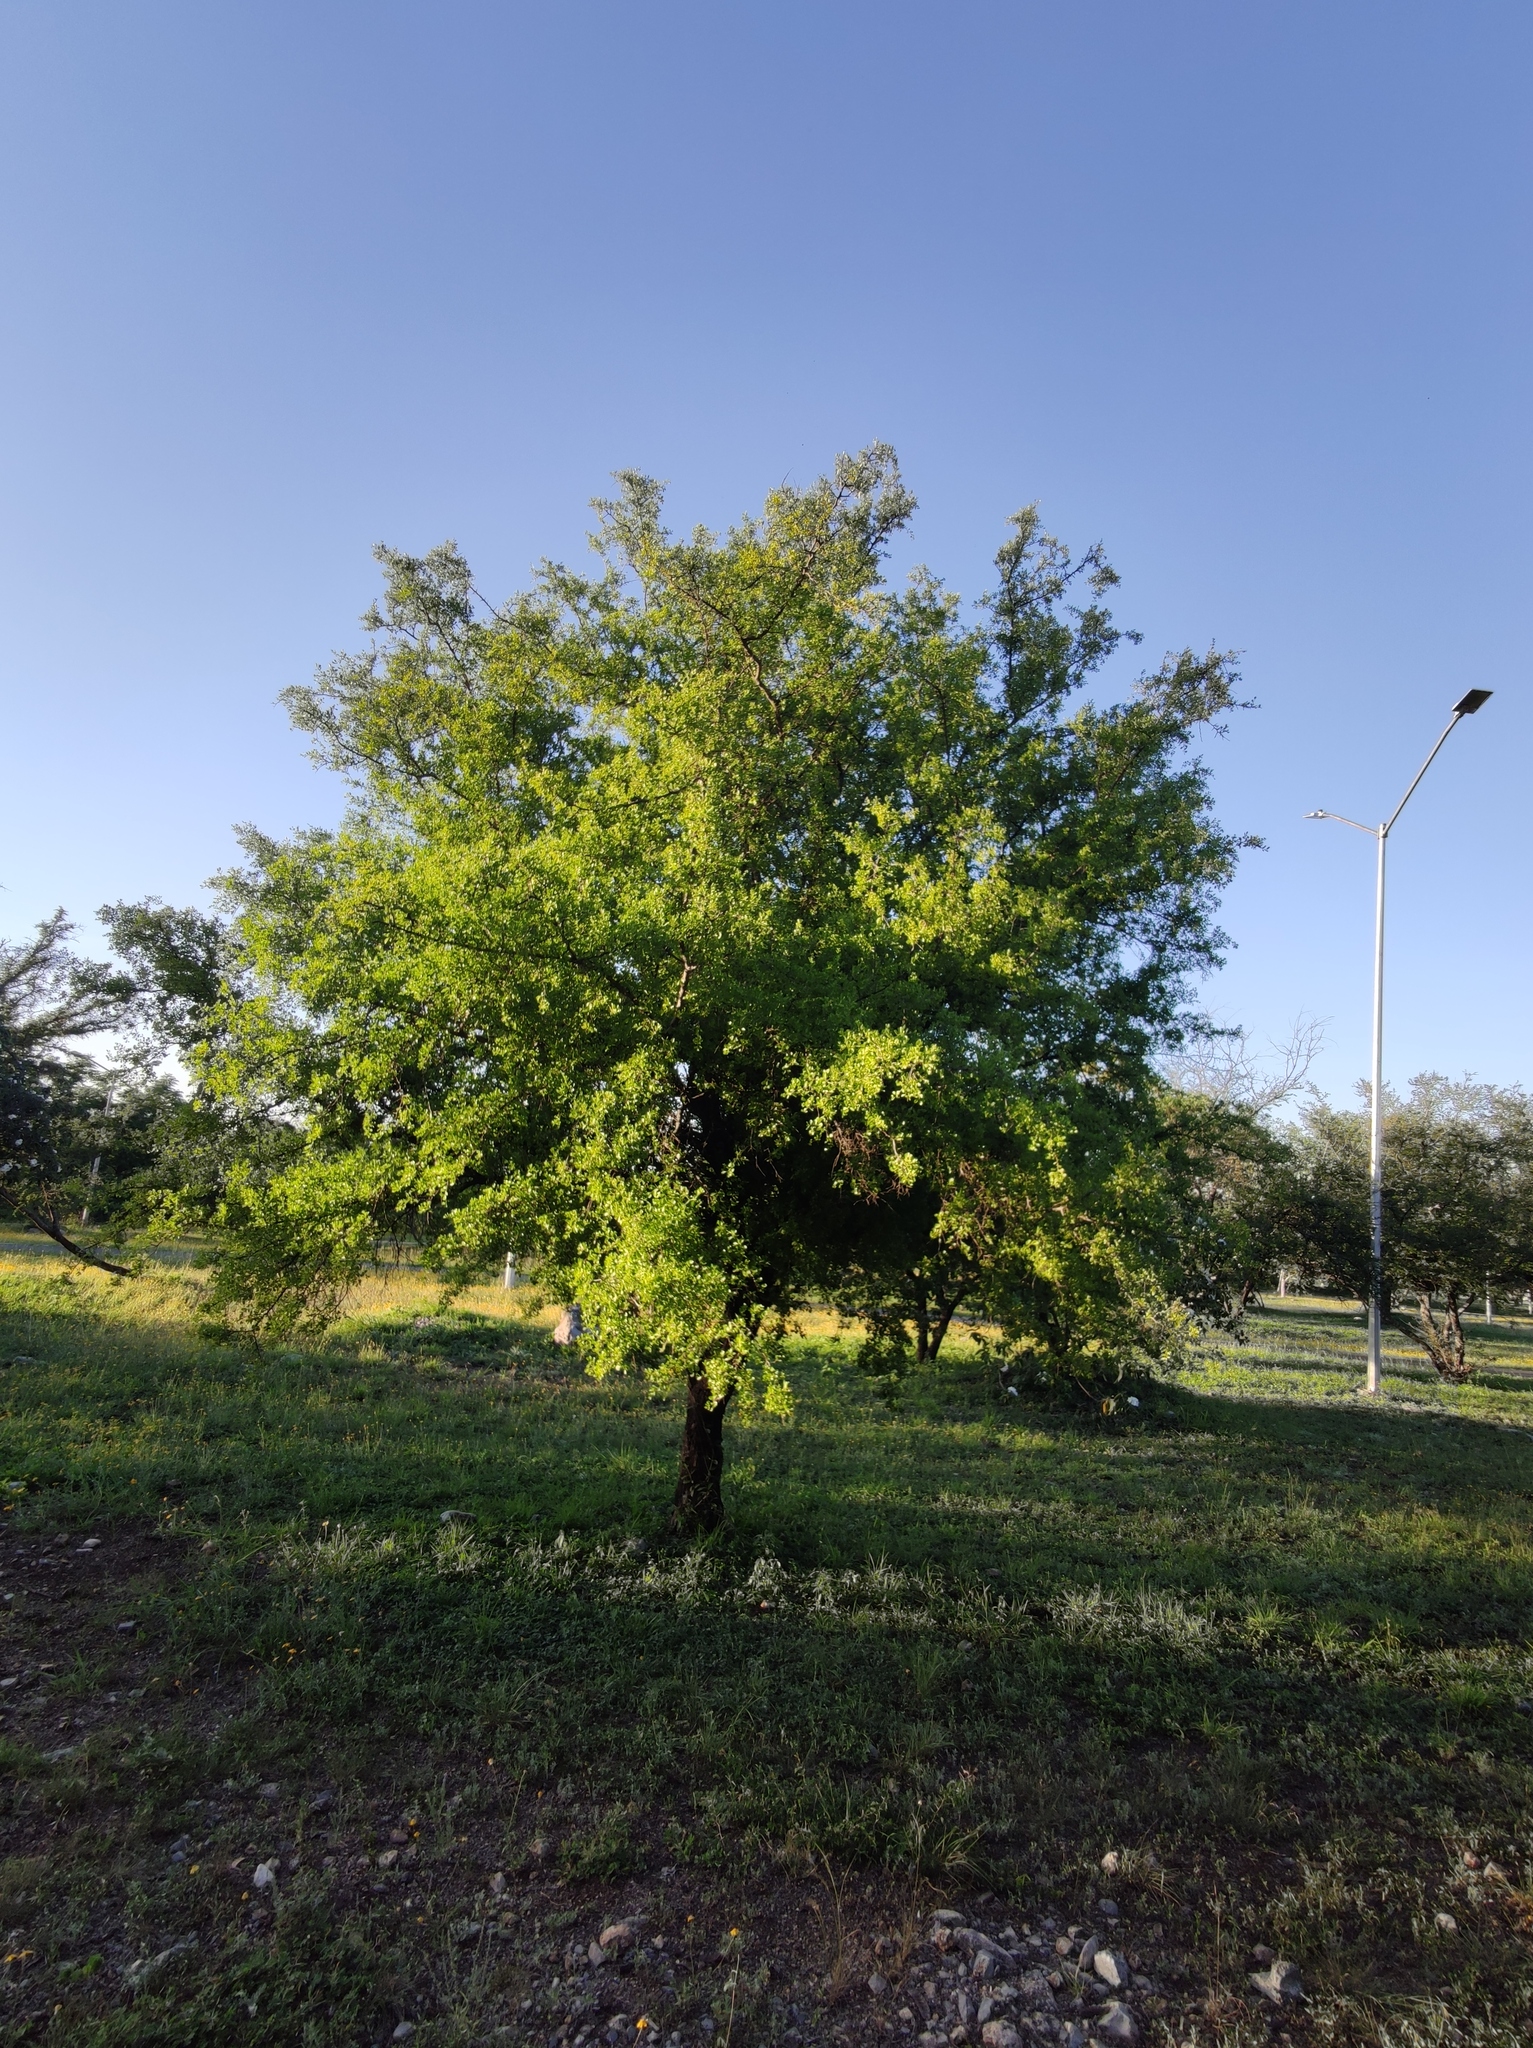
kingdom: Plantae
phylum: Tracheophyta
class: Magnoliopsida
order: Rosales
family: Rhamnaceae
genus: Condalia
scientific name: Condalia hookeri
